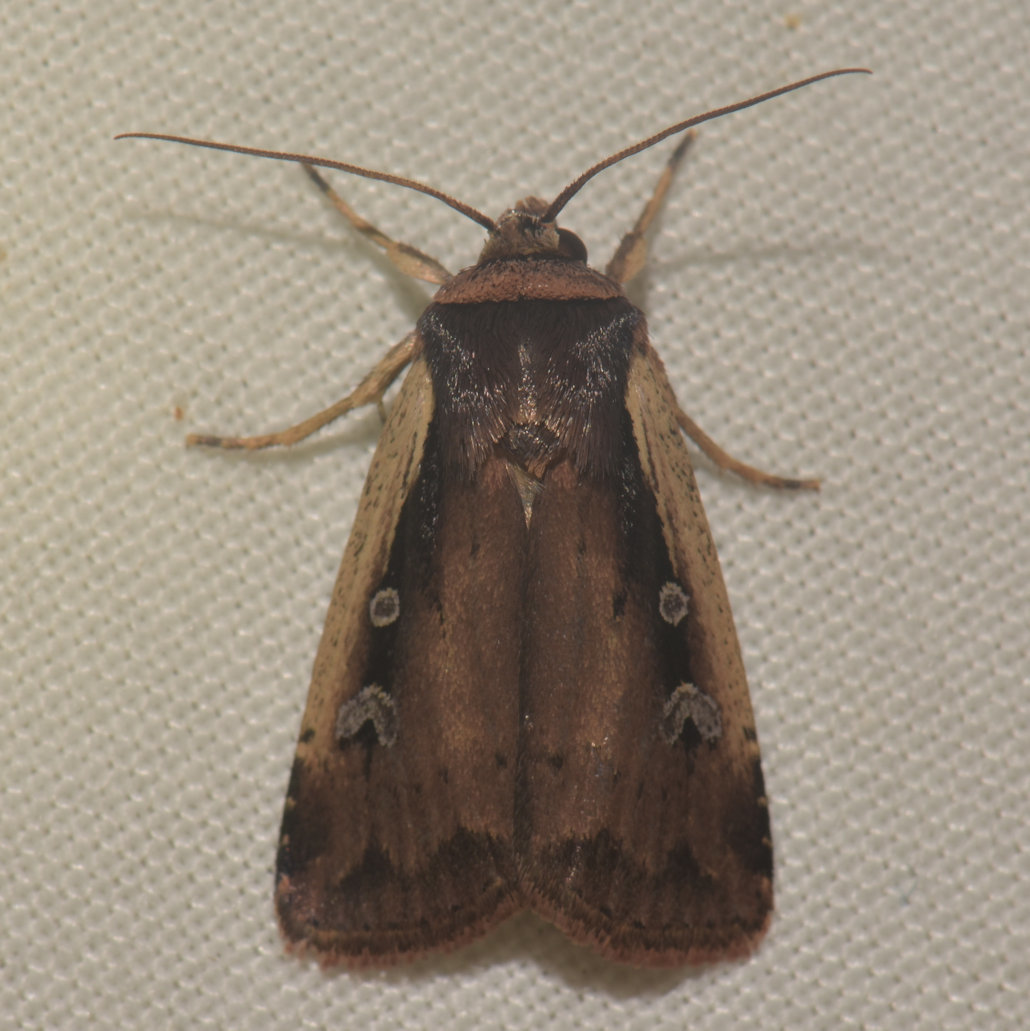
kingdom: Animalia
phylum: Arthropoda
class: Insecta
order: Lepidoptera
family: Noctuidae
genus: Ochropleura
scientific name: Ochropleura implecta
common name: Flame-shouldered dart
